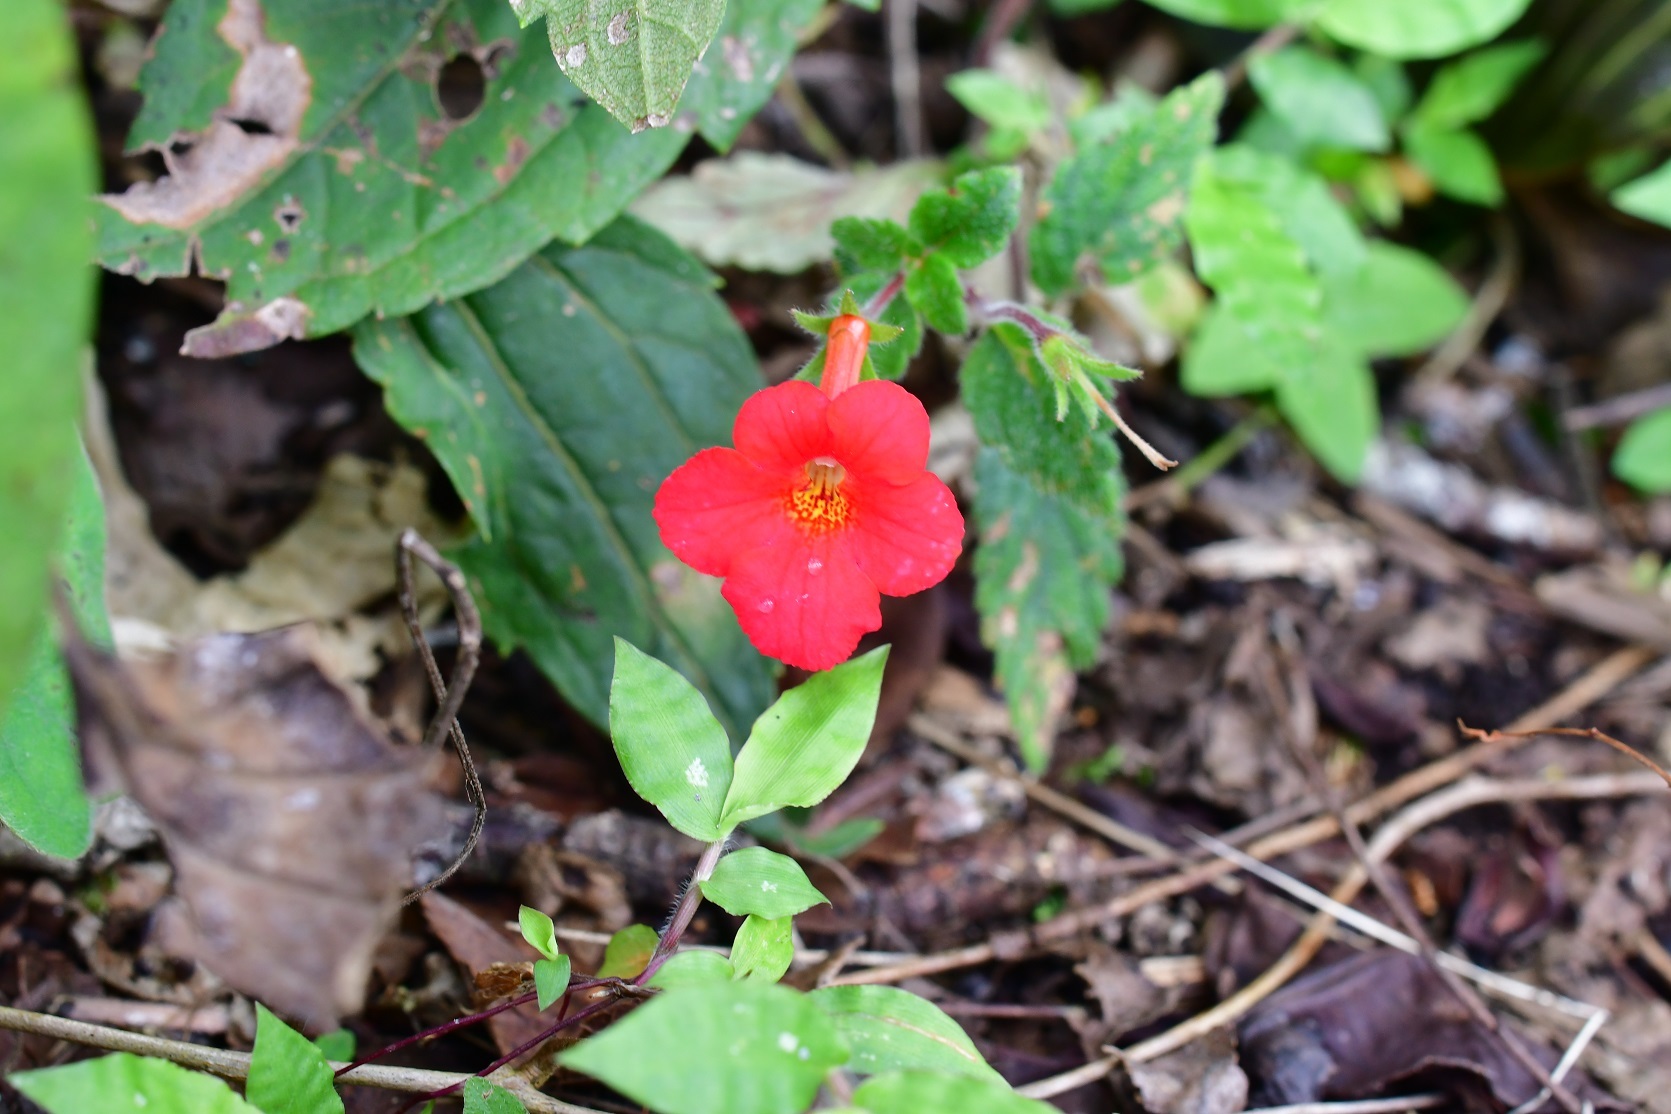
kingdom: Plantae
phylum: Tracheophyta
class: Magnoliopsida
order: Lamiales
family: Gesneriaceae
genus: Achimenes
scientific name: Achimenes erecta
